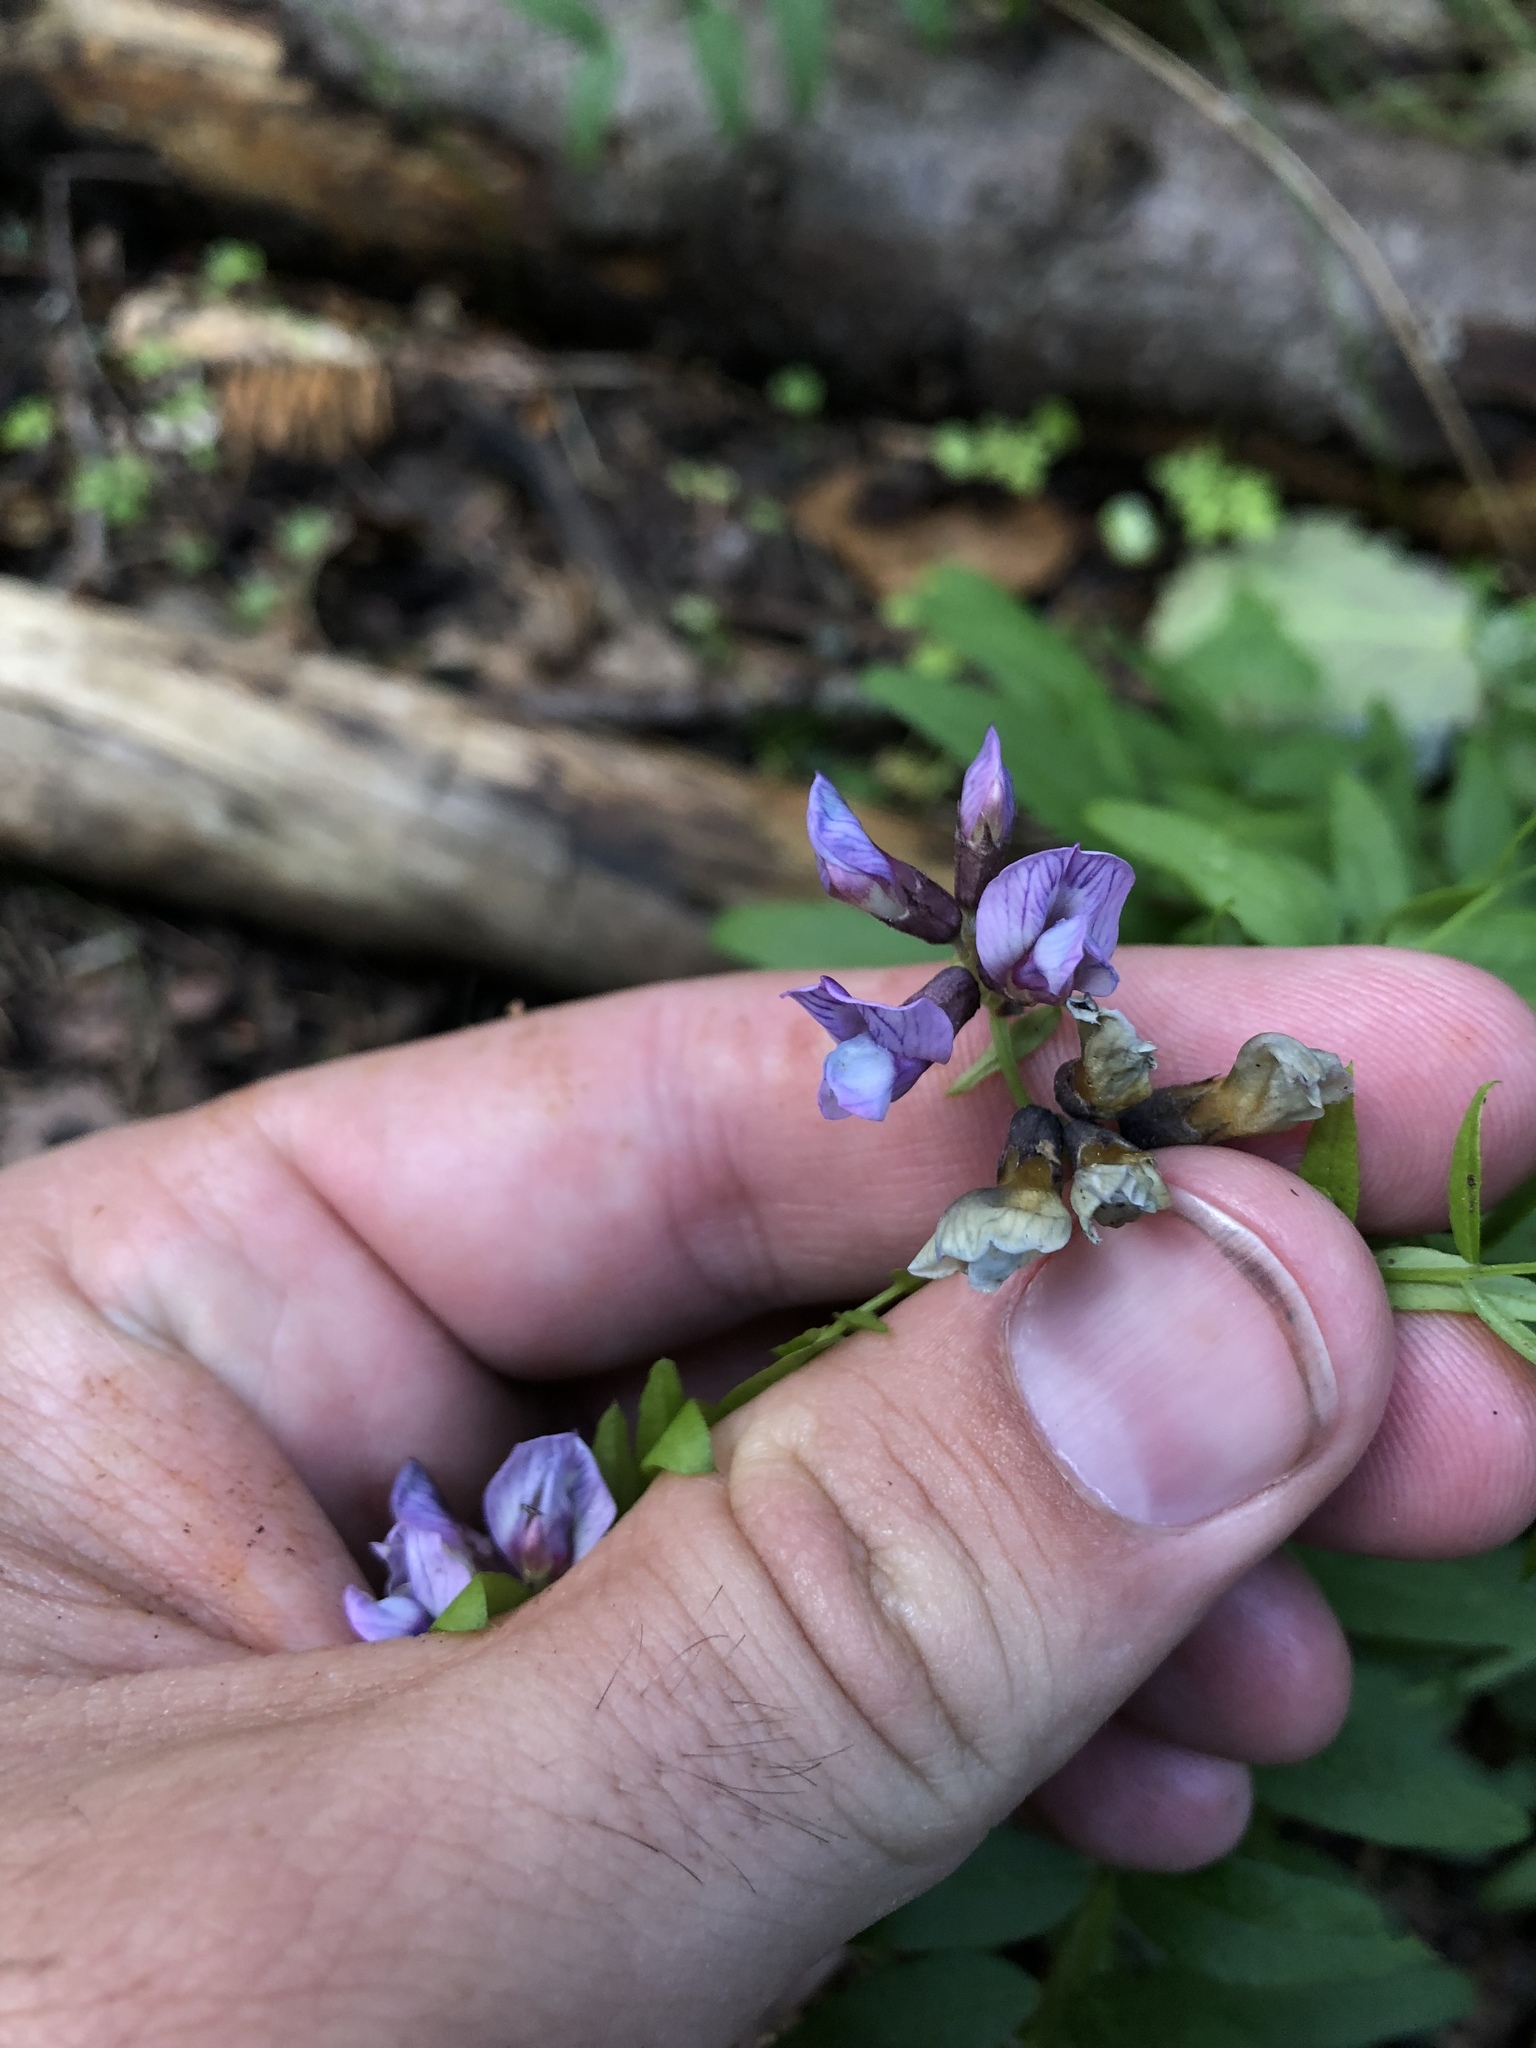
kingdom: Plantae
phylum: Tracheophyta
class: Magnoliopsida
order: Fabales
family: Fabaceae
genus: Vicia
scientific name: Vicia sepium
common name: Bush vetch
